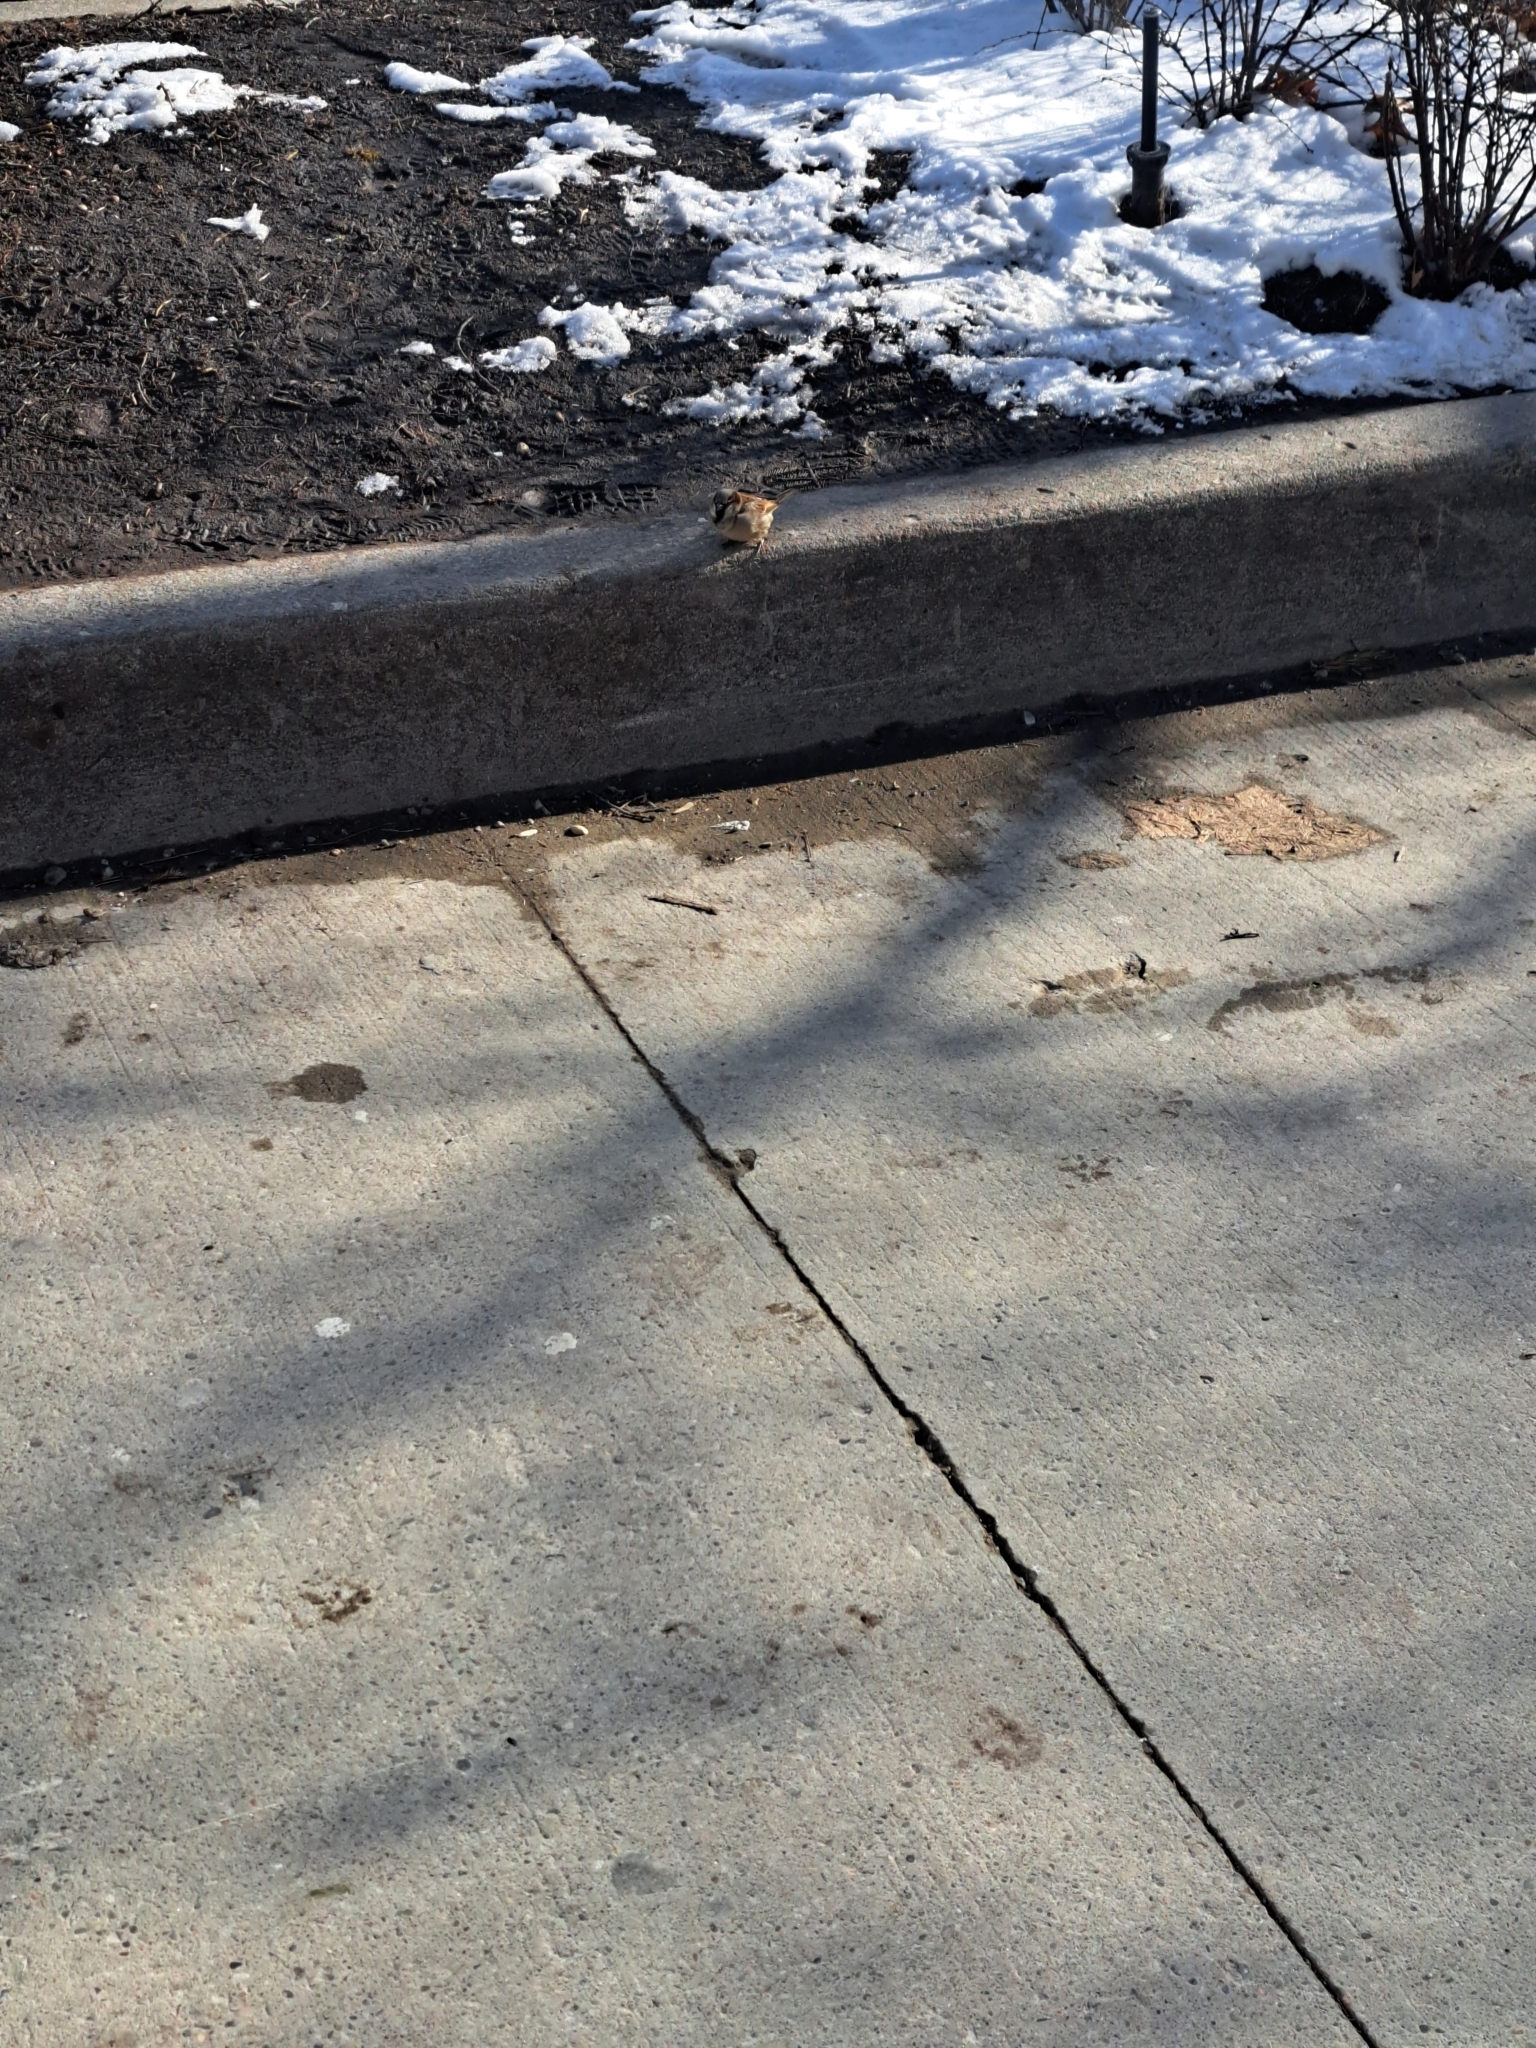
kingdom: Animalia
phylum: Chordata
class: Aves
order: Passeriformes
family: Passeridae
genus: Passer
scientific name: Passer domesticus
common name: House sparrow
